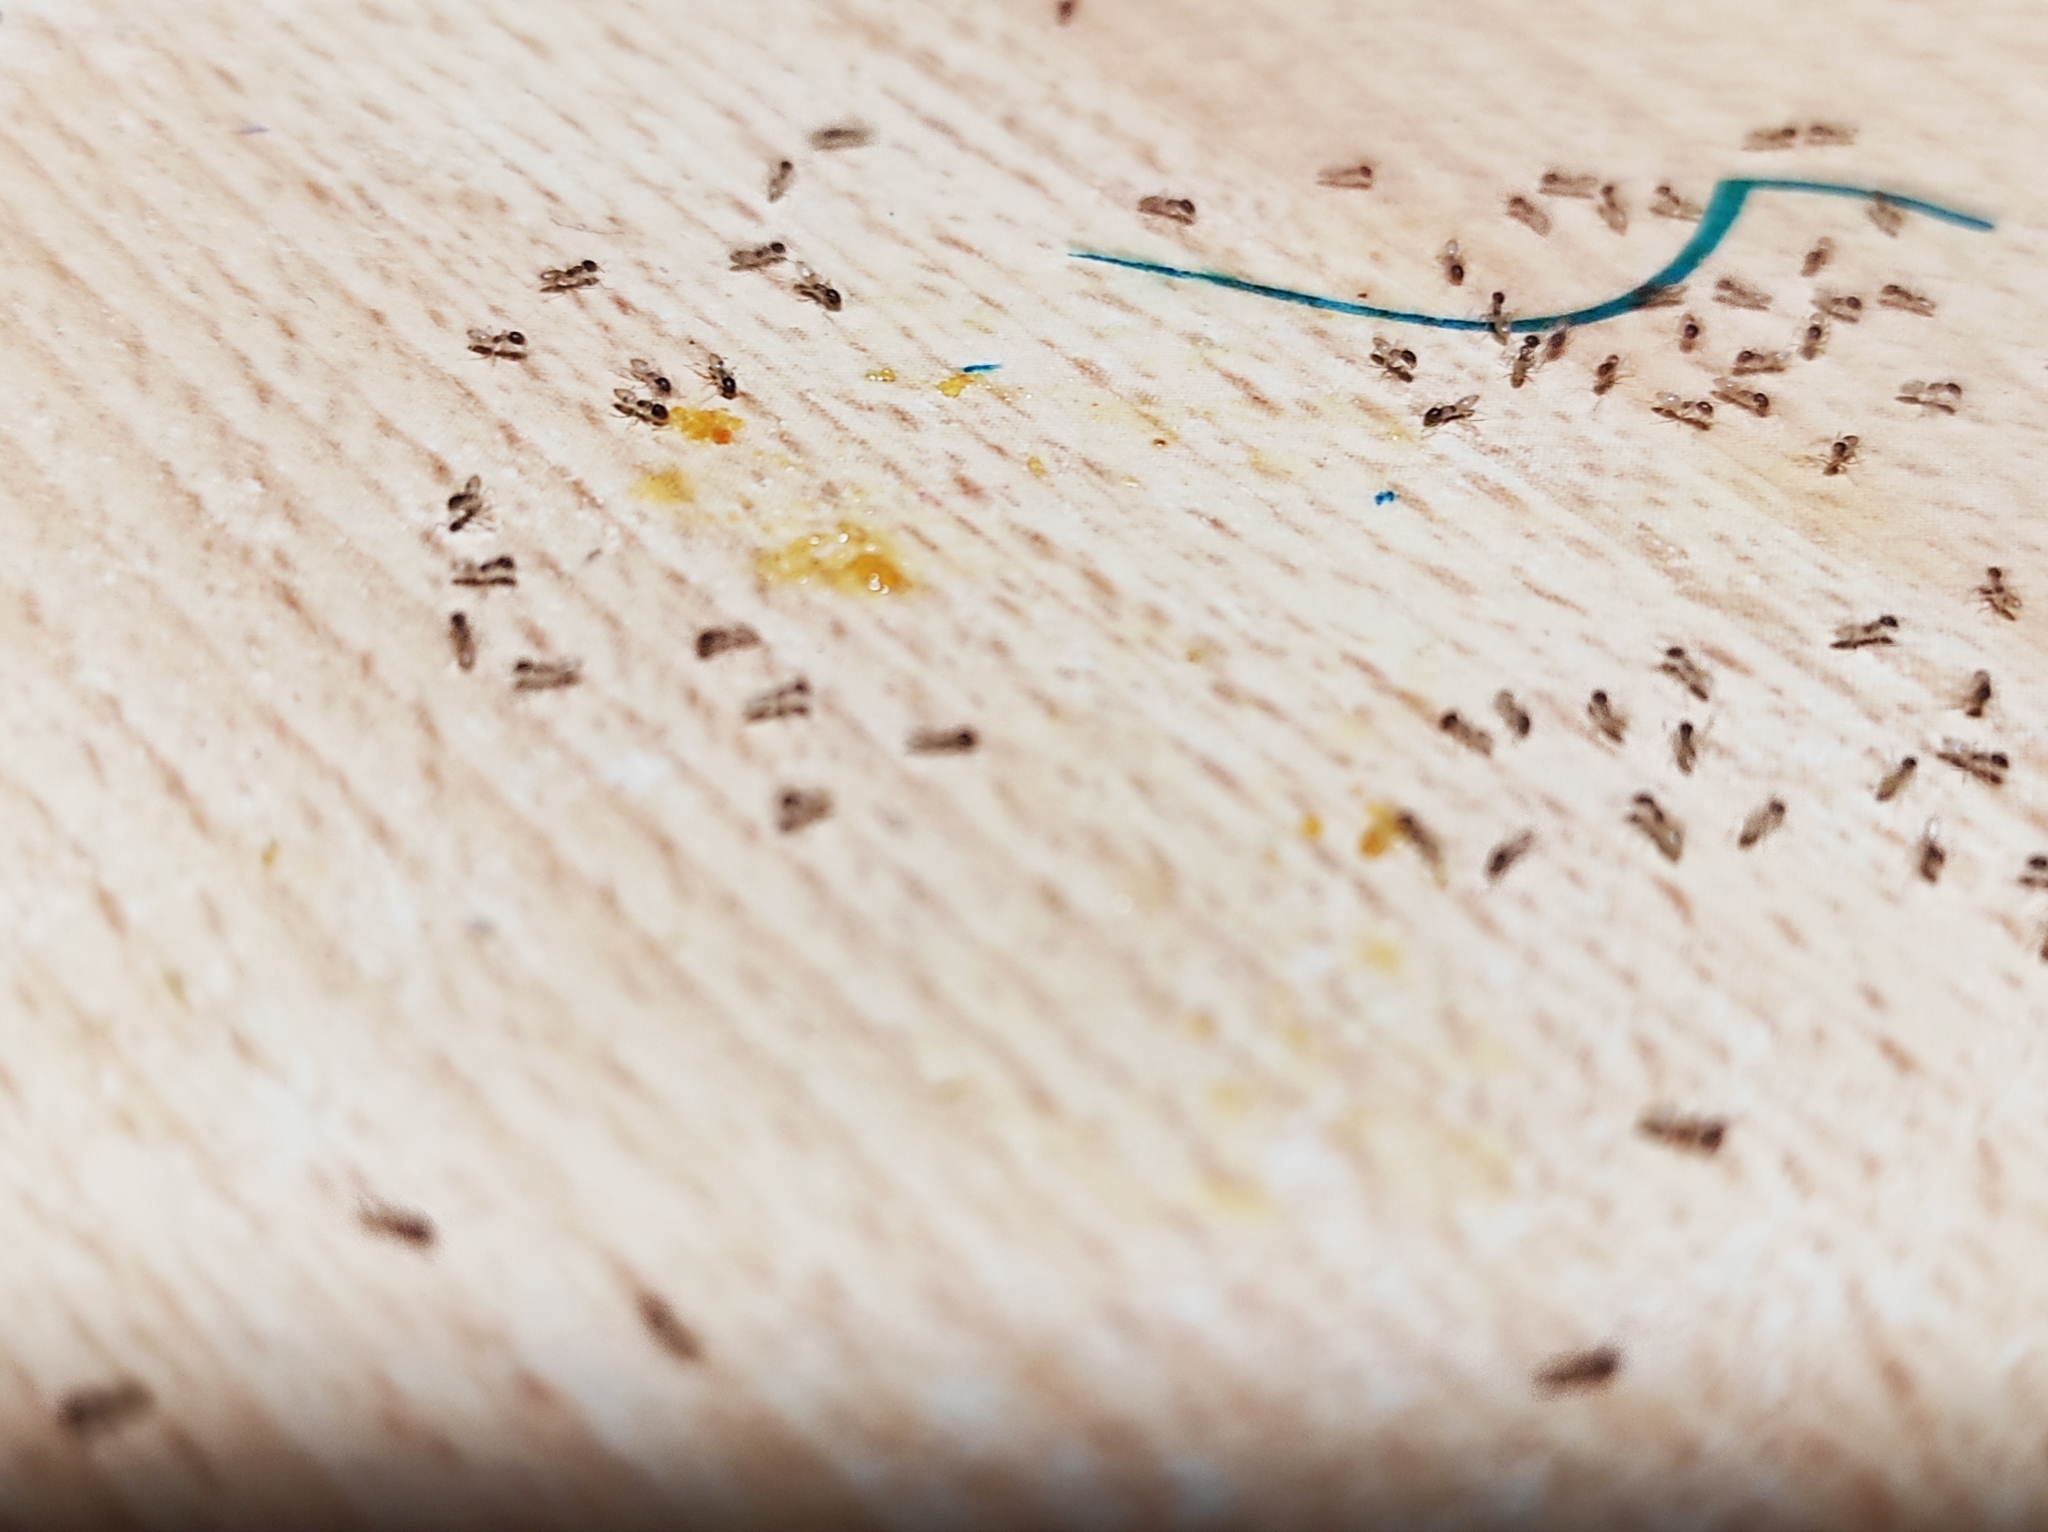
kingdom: Animalia
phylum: Arthropoda
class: Insecta
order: Hymenoptera
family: Formicidae
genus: Tapinoma
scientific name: Tapinoma melanocephalum
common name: Ghost ant
